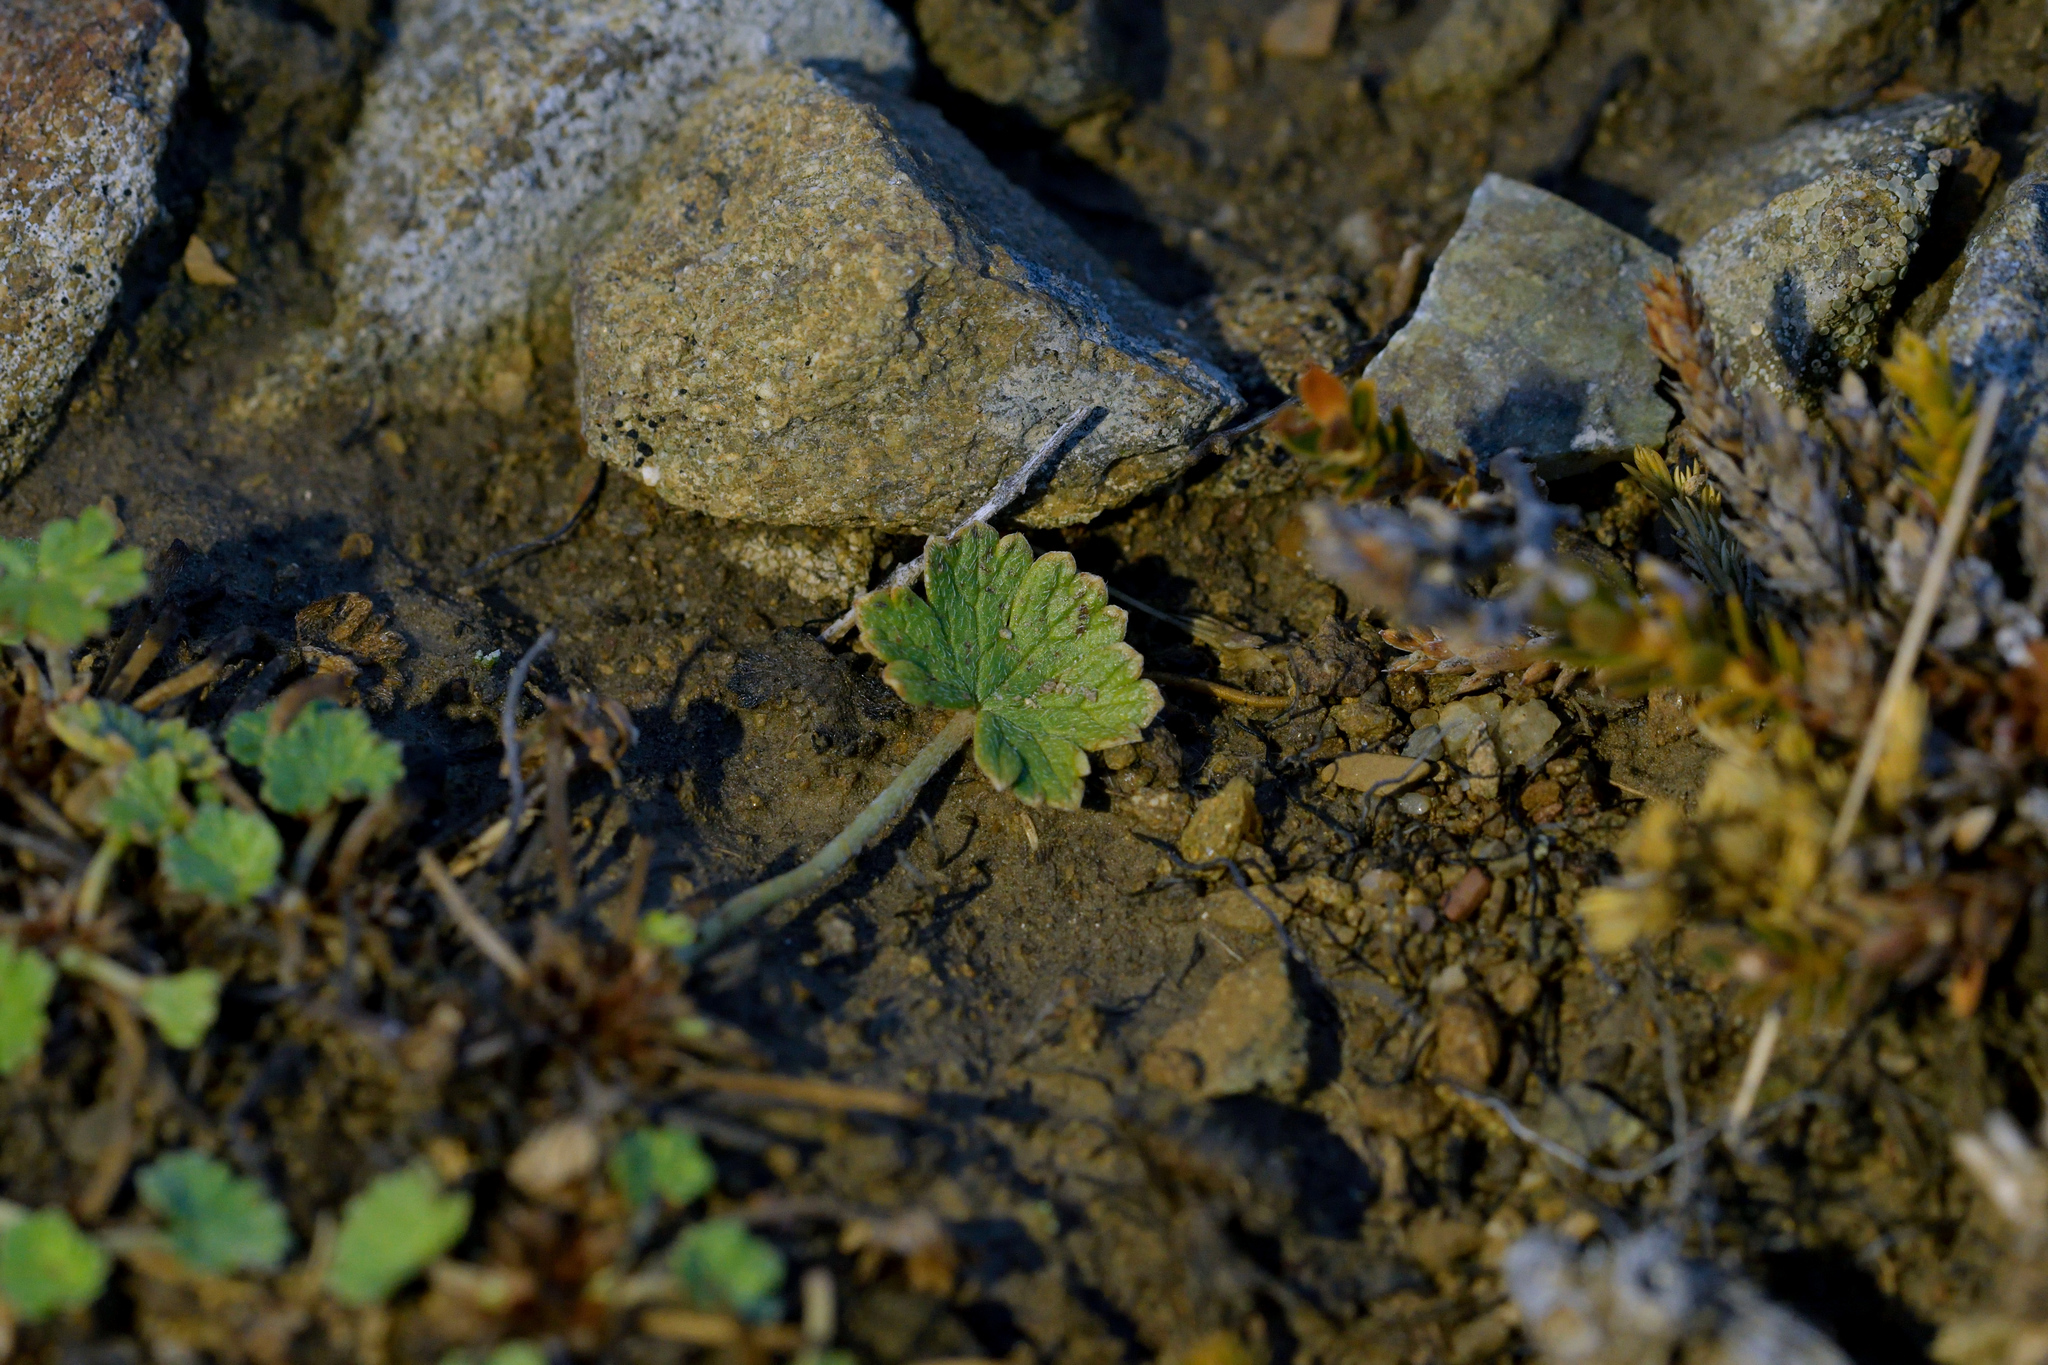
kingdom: Plantae
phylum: Tracheophyta
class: Magnoliopsida
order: Geraniales
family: Geraniaceae
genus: Geranium
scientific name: Geranium brevicaule
